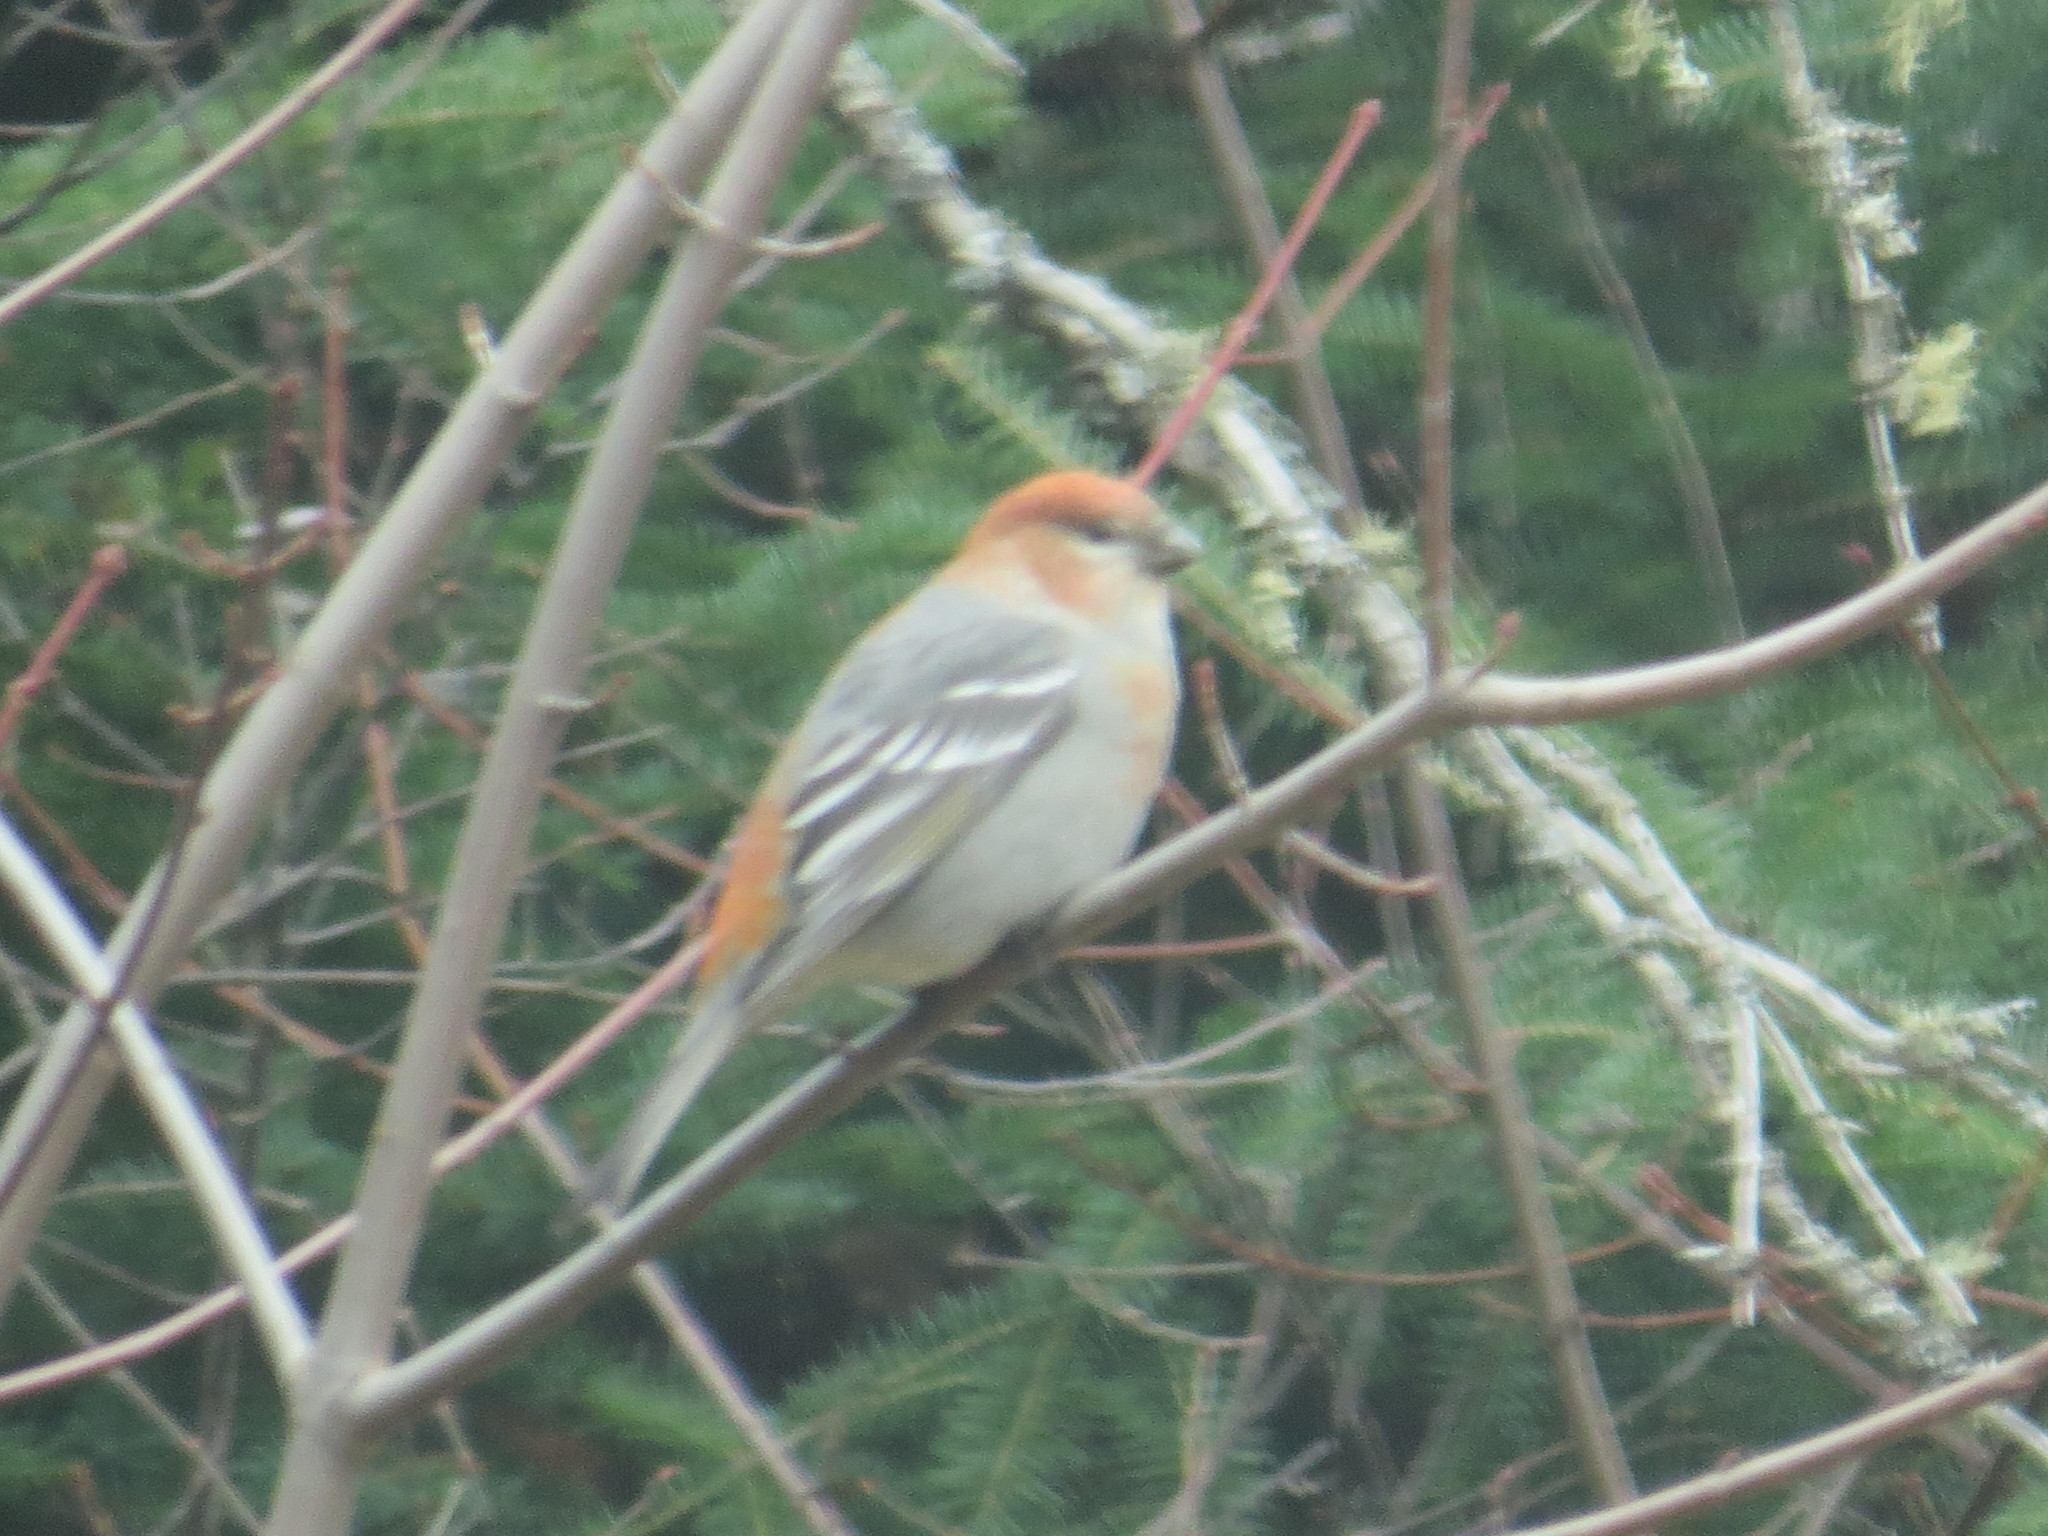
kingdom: Animalia
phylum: Chordata
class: Aves
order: Passeriformes
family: Fringillidae
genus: Pinicola
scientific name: Pinicola enucleator
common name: Pine grosbeak
